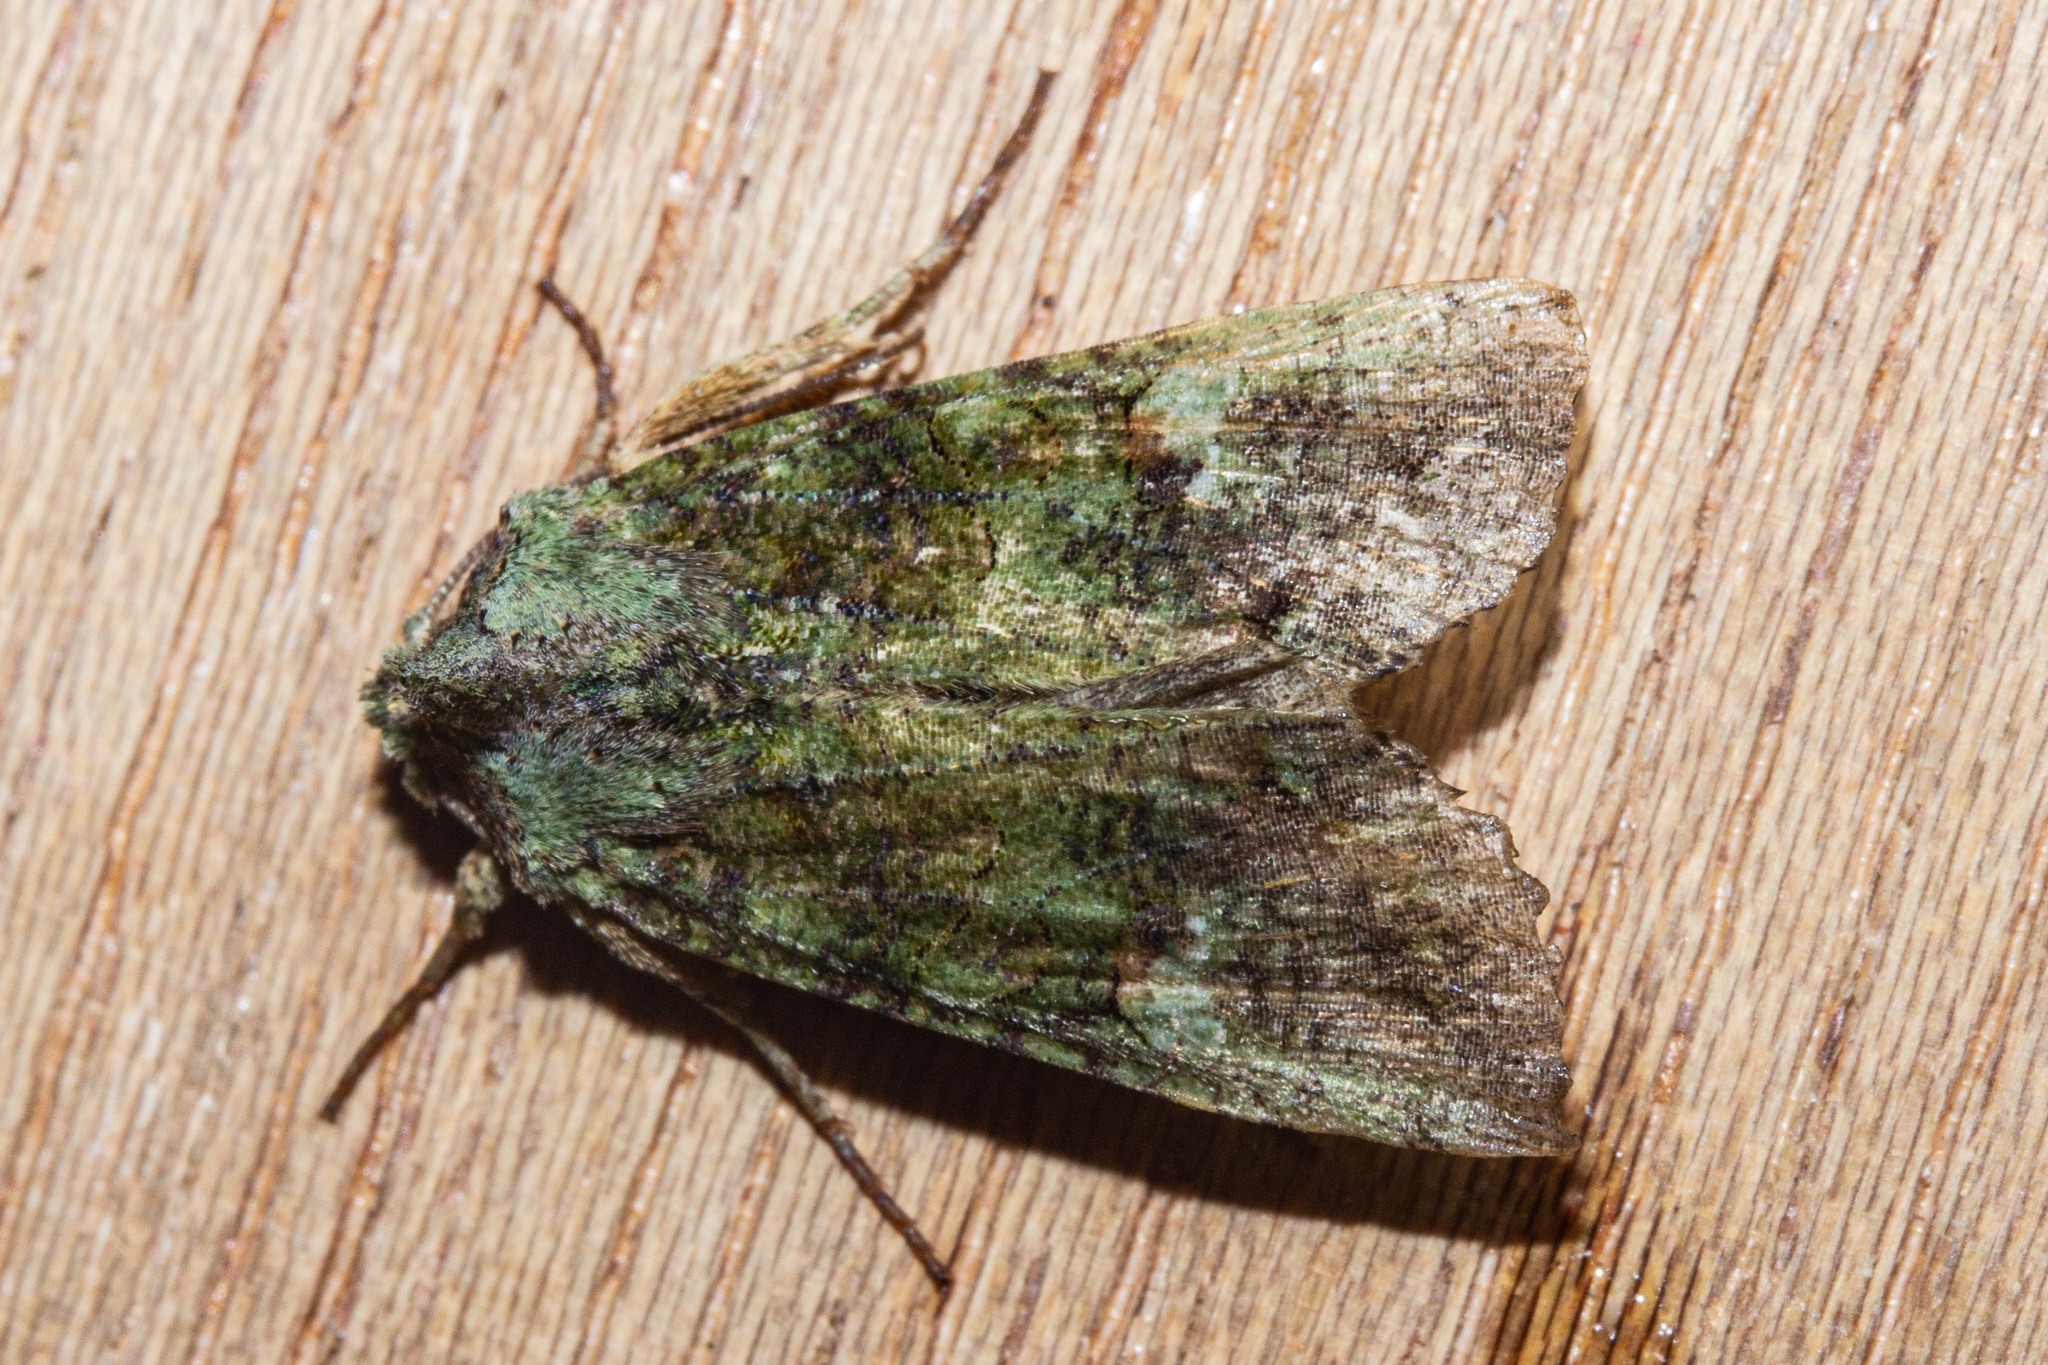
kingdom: Animalia
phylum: Arthropoda
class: Insecta
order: Lepidoptera
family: Noctuidae
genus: Meterana
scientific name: Meterana levis
